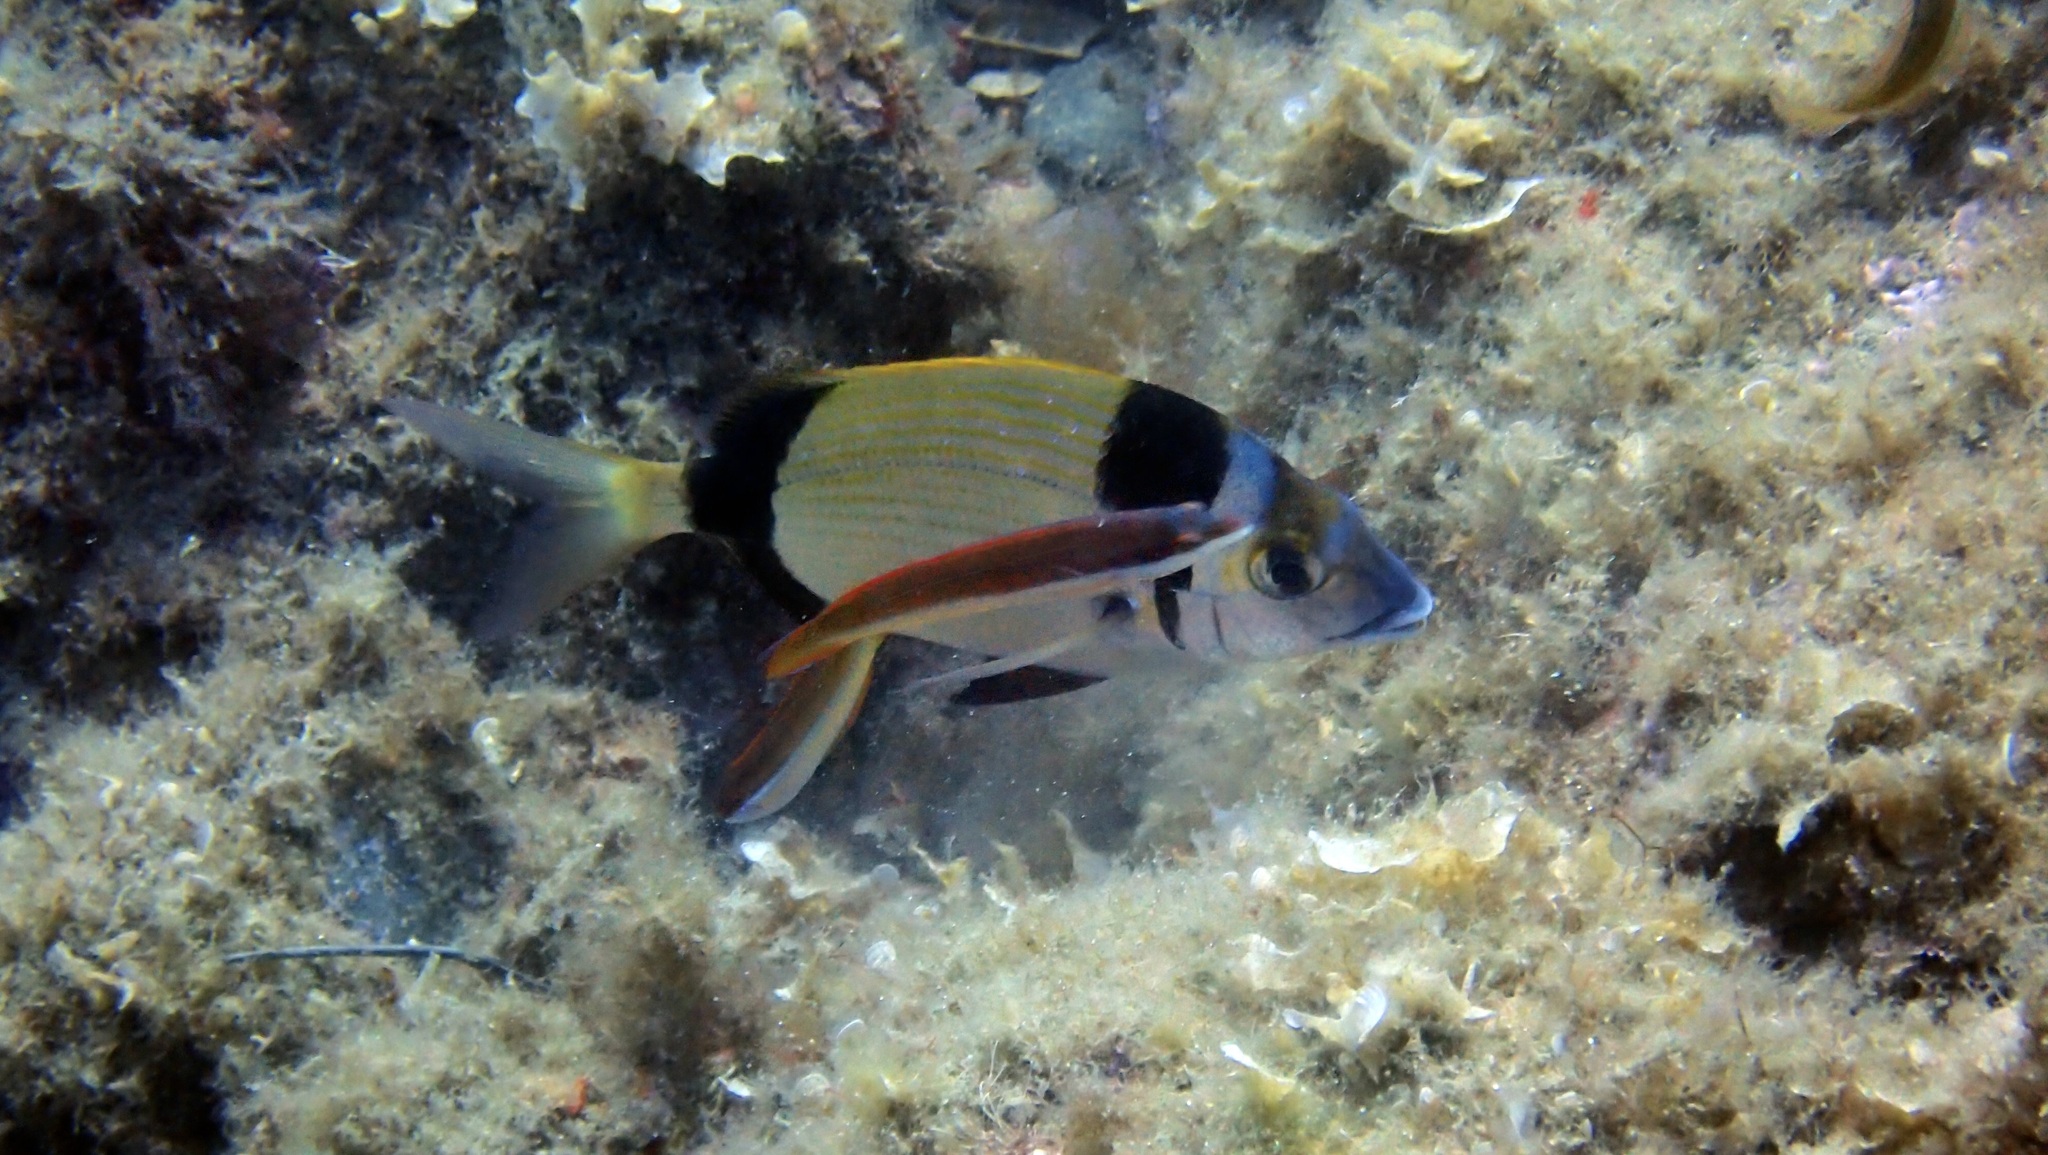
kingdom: Animalia
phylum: Chordata
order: Perciformes
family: Sparidae
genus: Diplodus
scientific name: Diplodus vulgaris
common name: Common two-banded seabream
